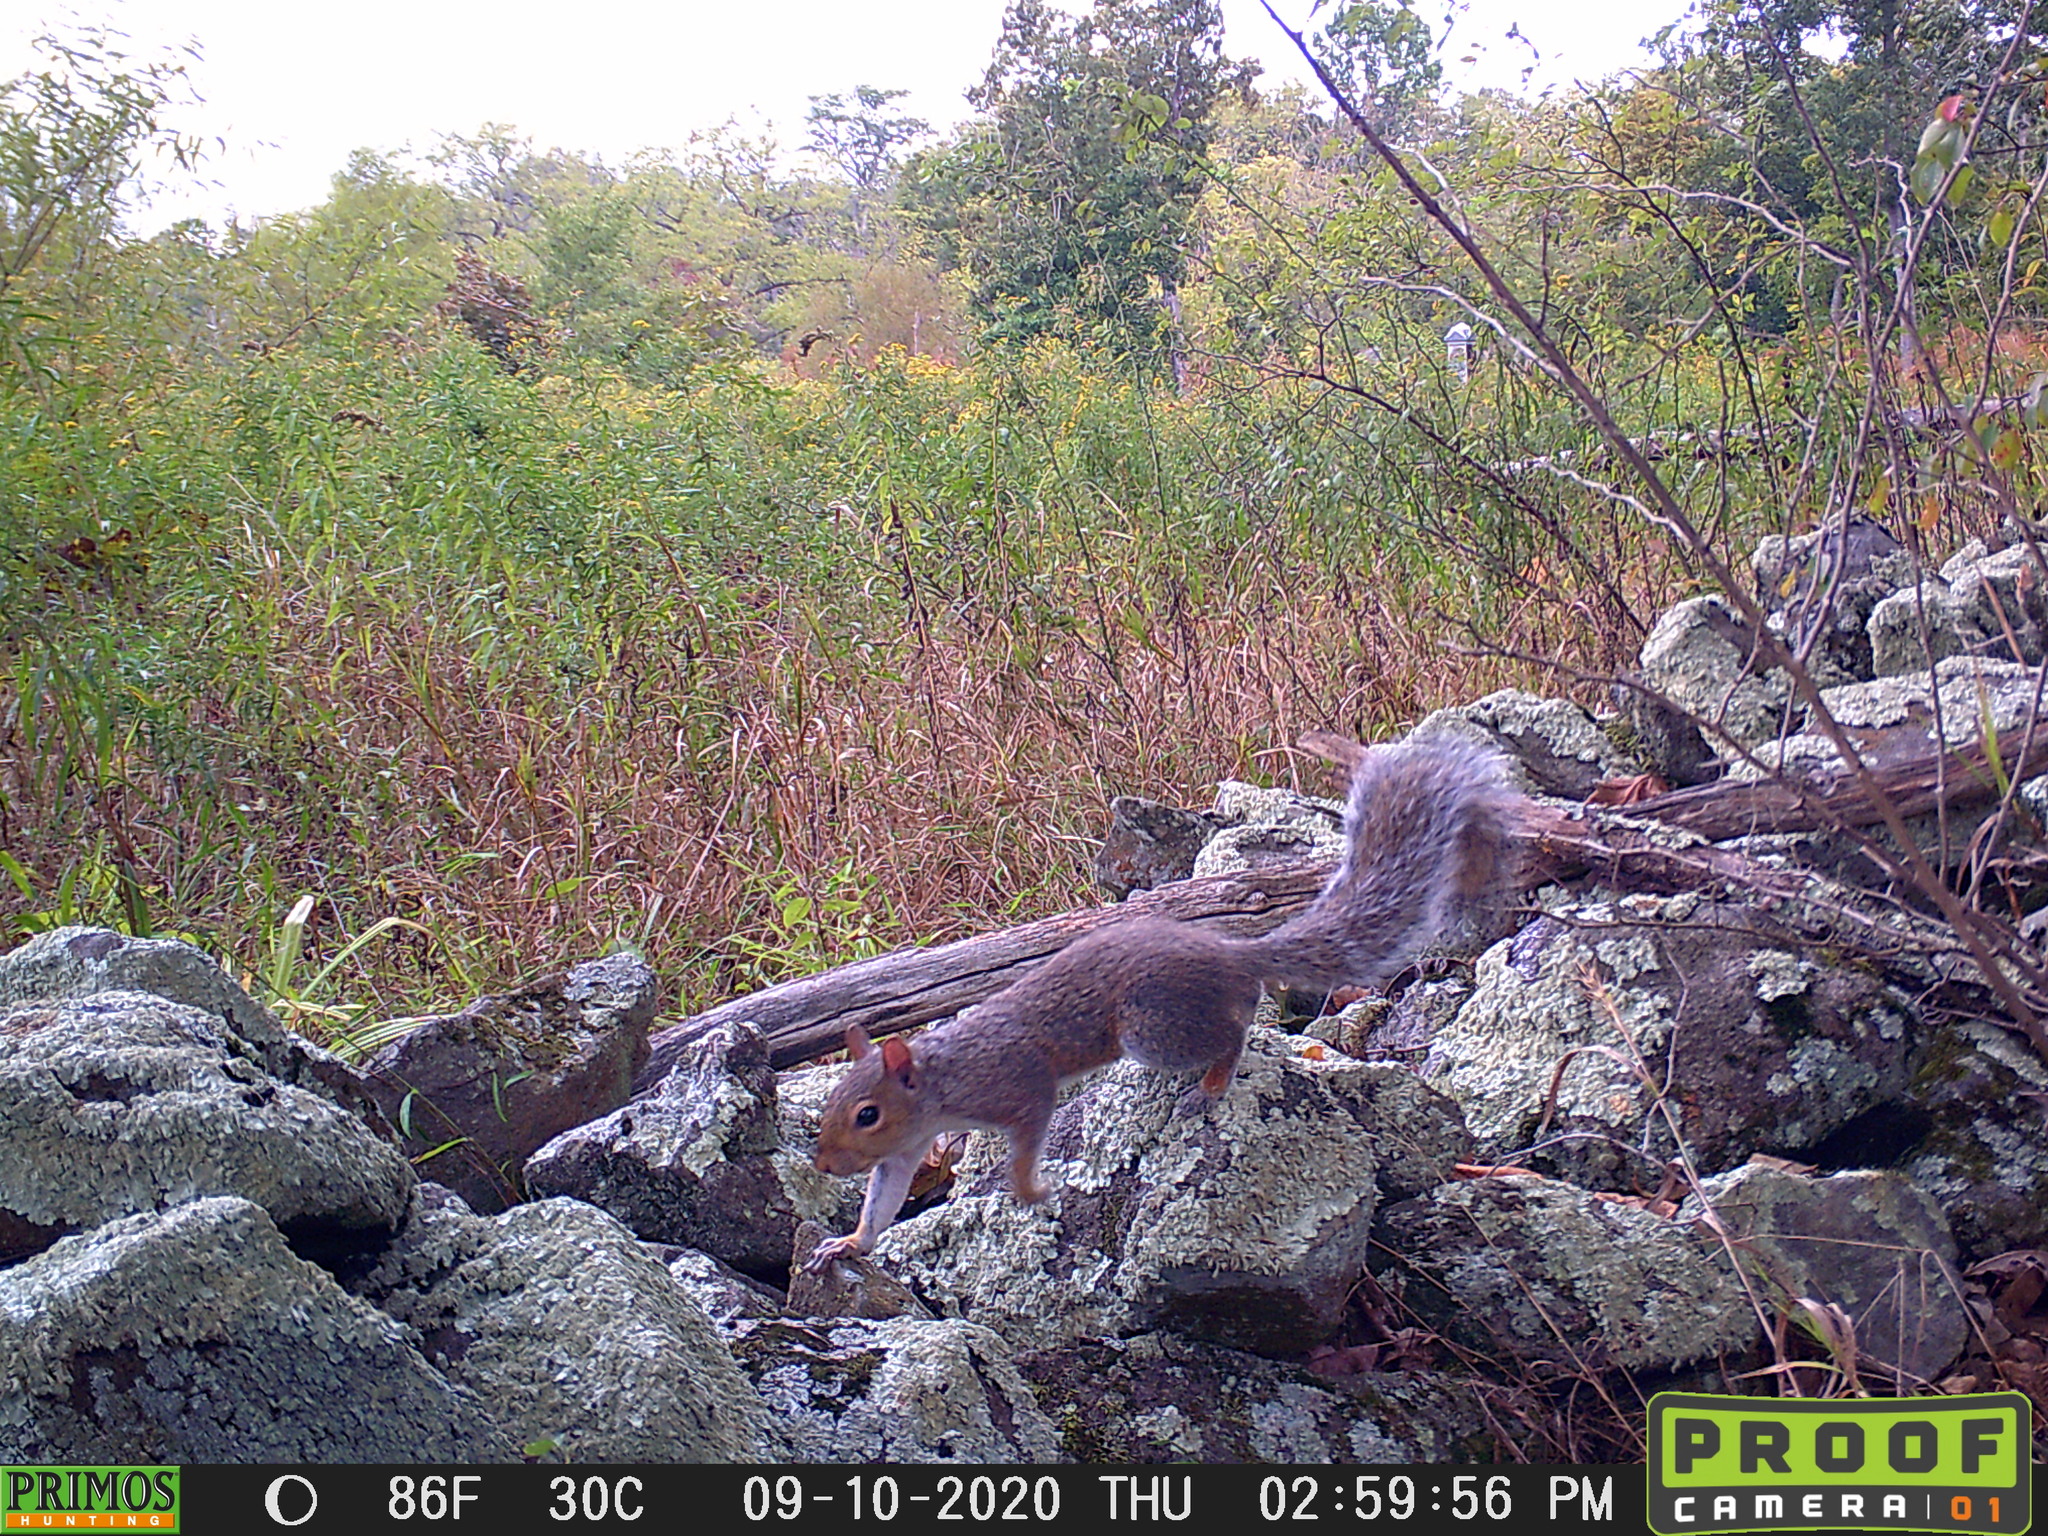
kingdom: Animalia
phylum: Chordata
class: Mammalia
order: Rodentia
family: Sciuridae
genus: Sciurus
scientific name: Sciurus carolinensis
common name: Eastern gray squirrel
